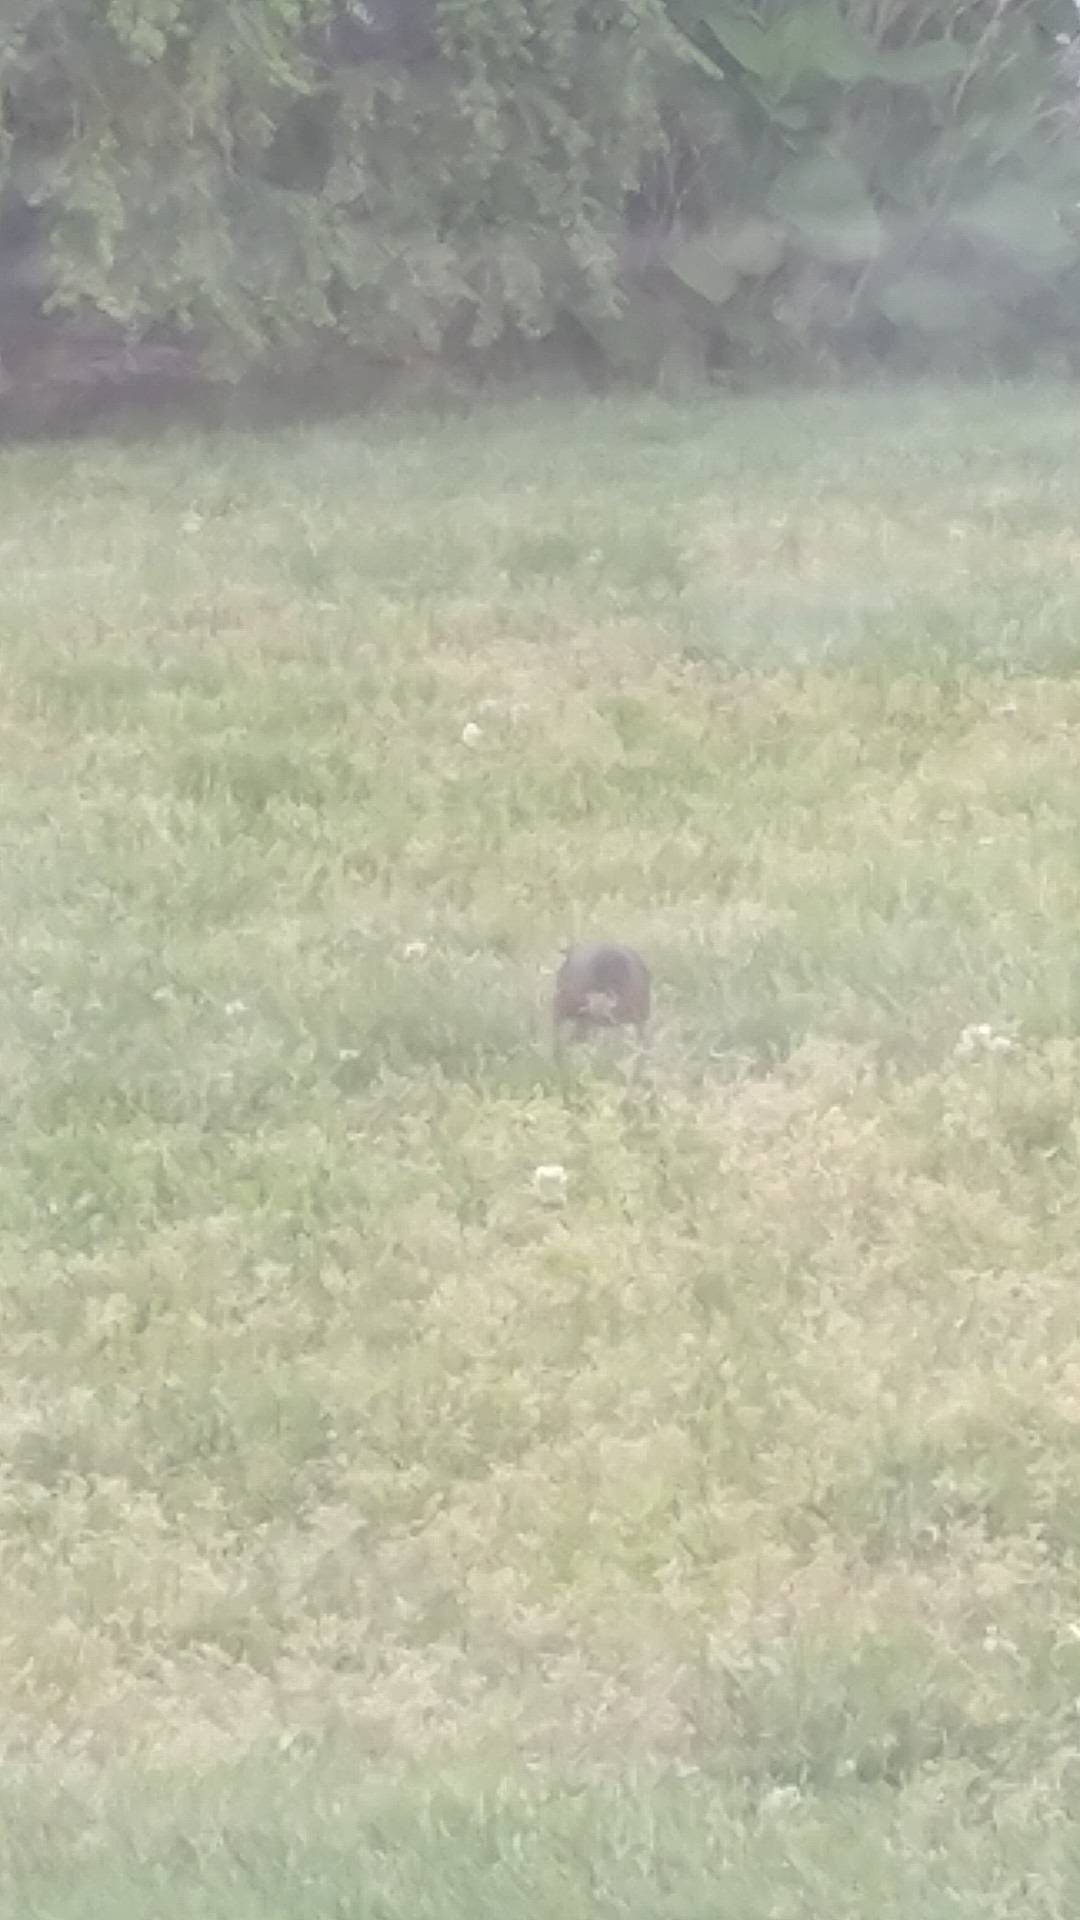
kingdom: Animalia
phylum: Chordata
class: Aves
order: Passeriformes
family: Turdidae
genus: Turdus
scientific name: Turdus migratorius
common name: American robin
